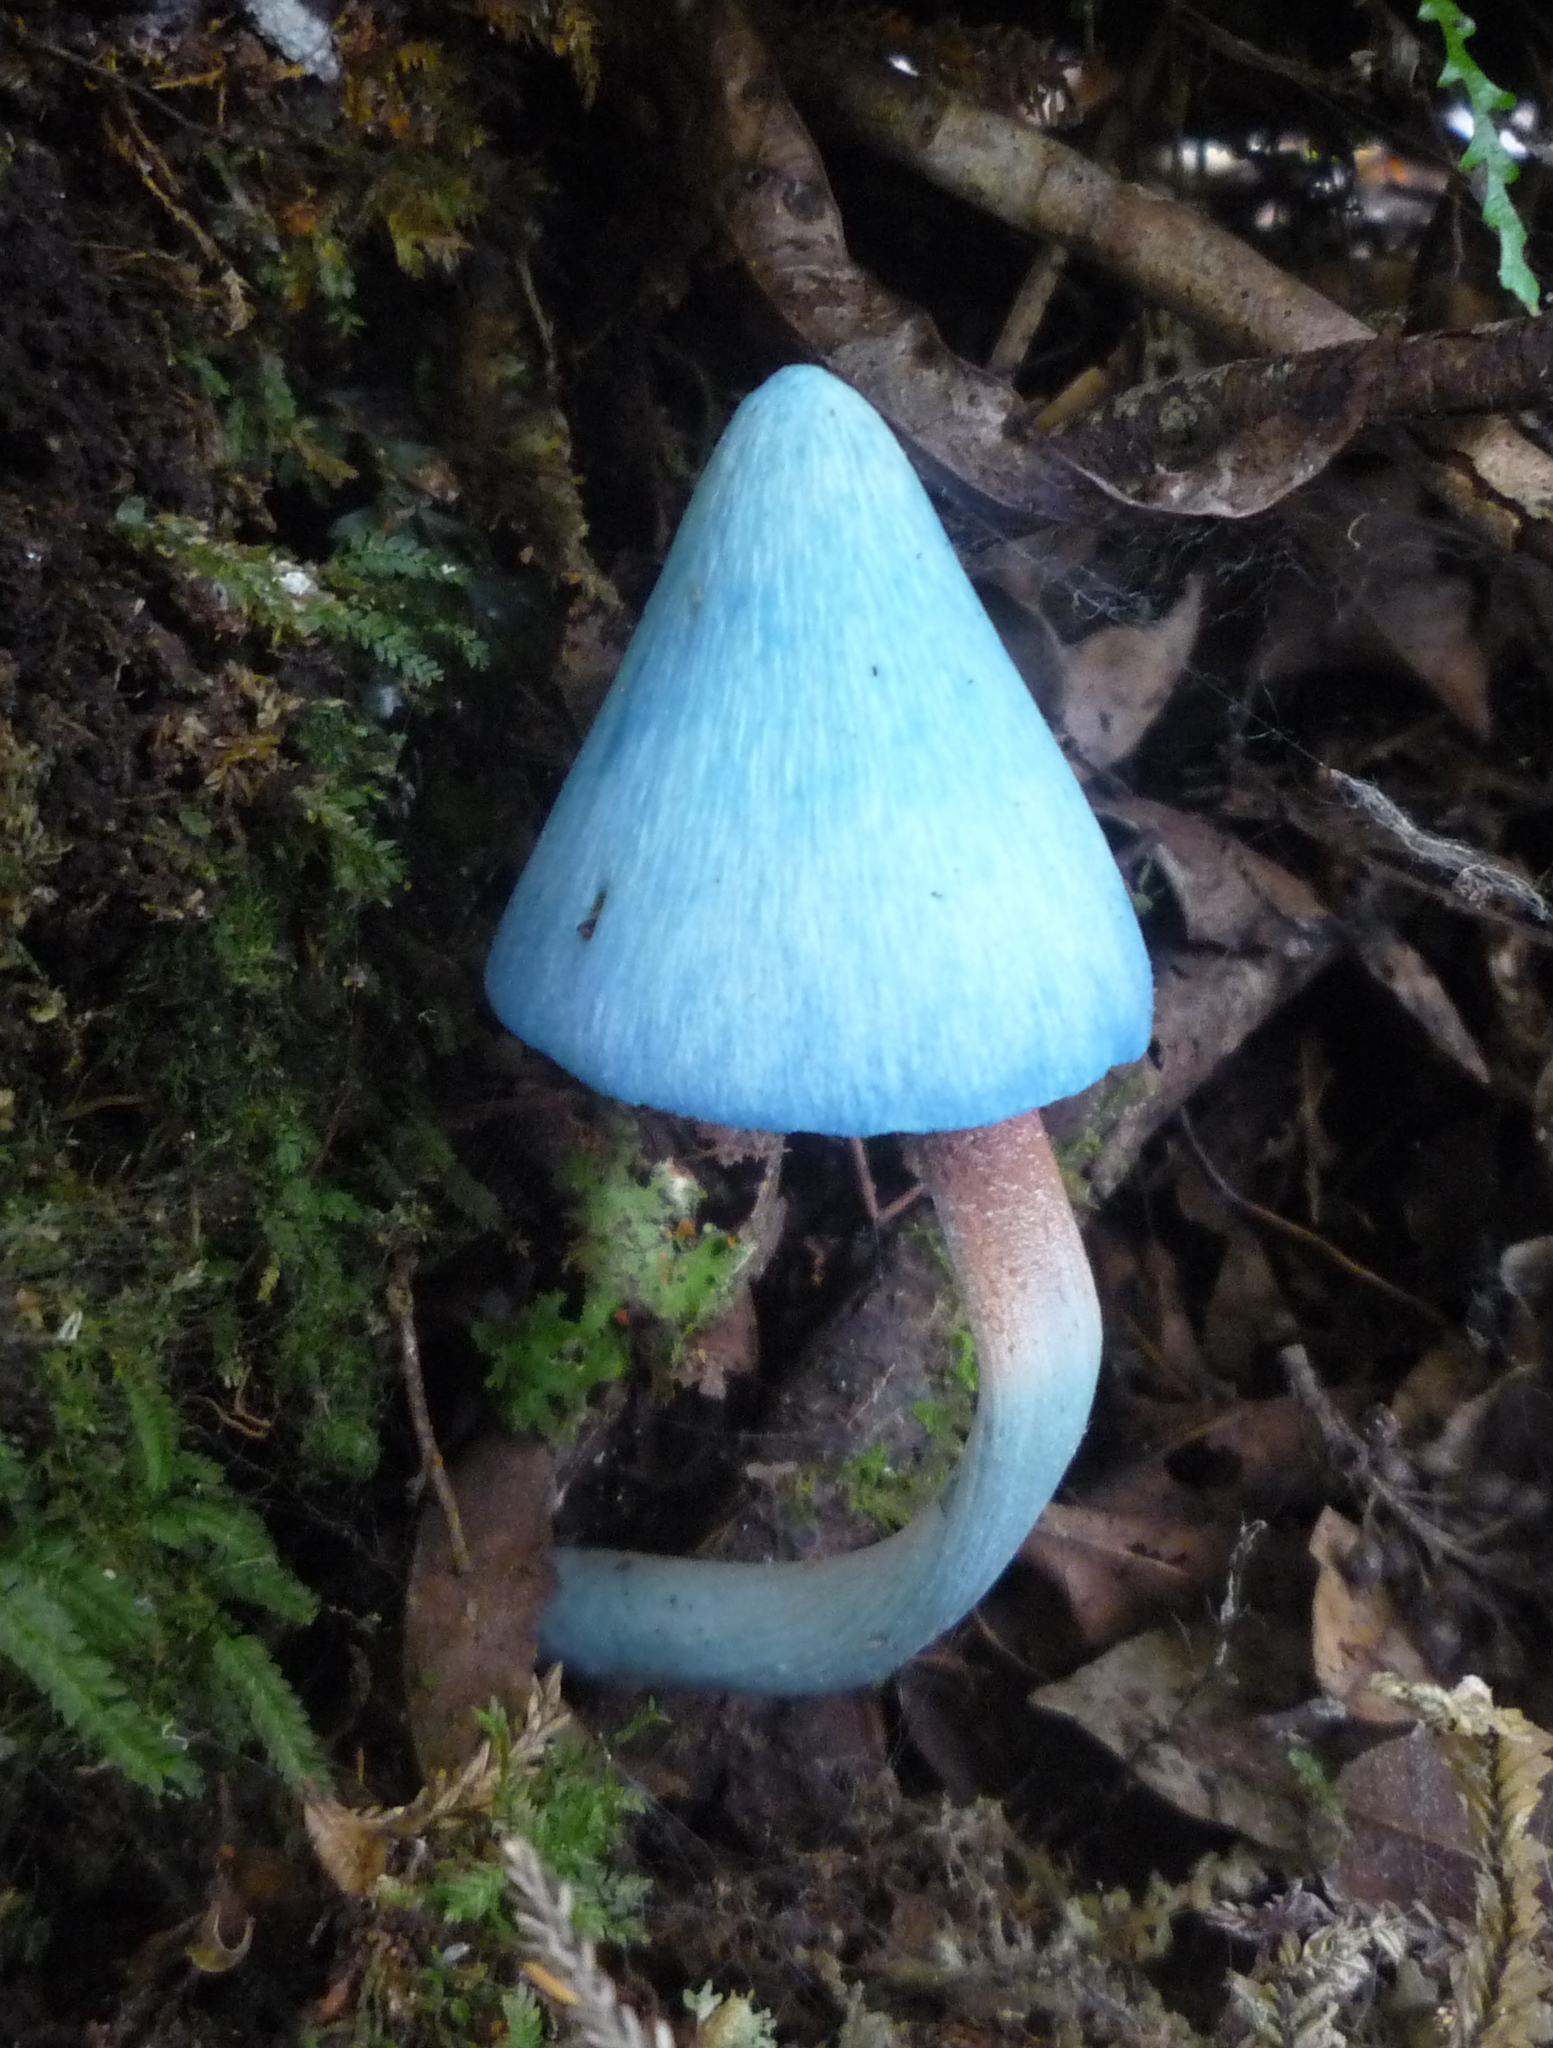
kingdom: Fungi
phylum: Basidiomycota
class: Agaricomycetes
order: Agaricales
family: Entolomataceae
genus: Entoloma
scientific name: Entoloma hochstetteri
